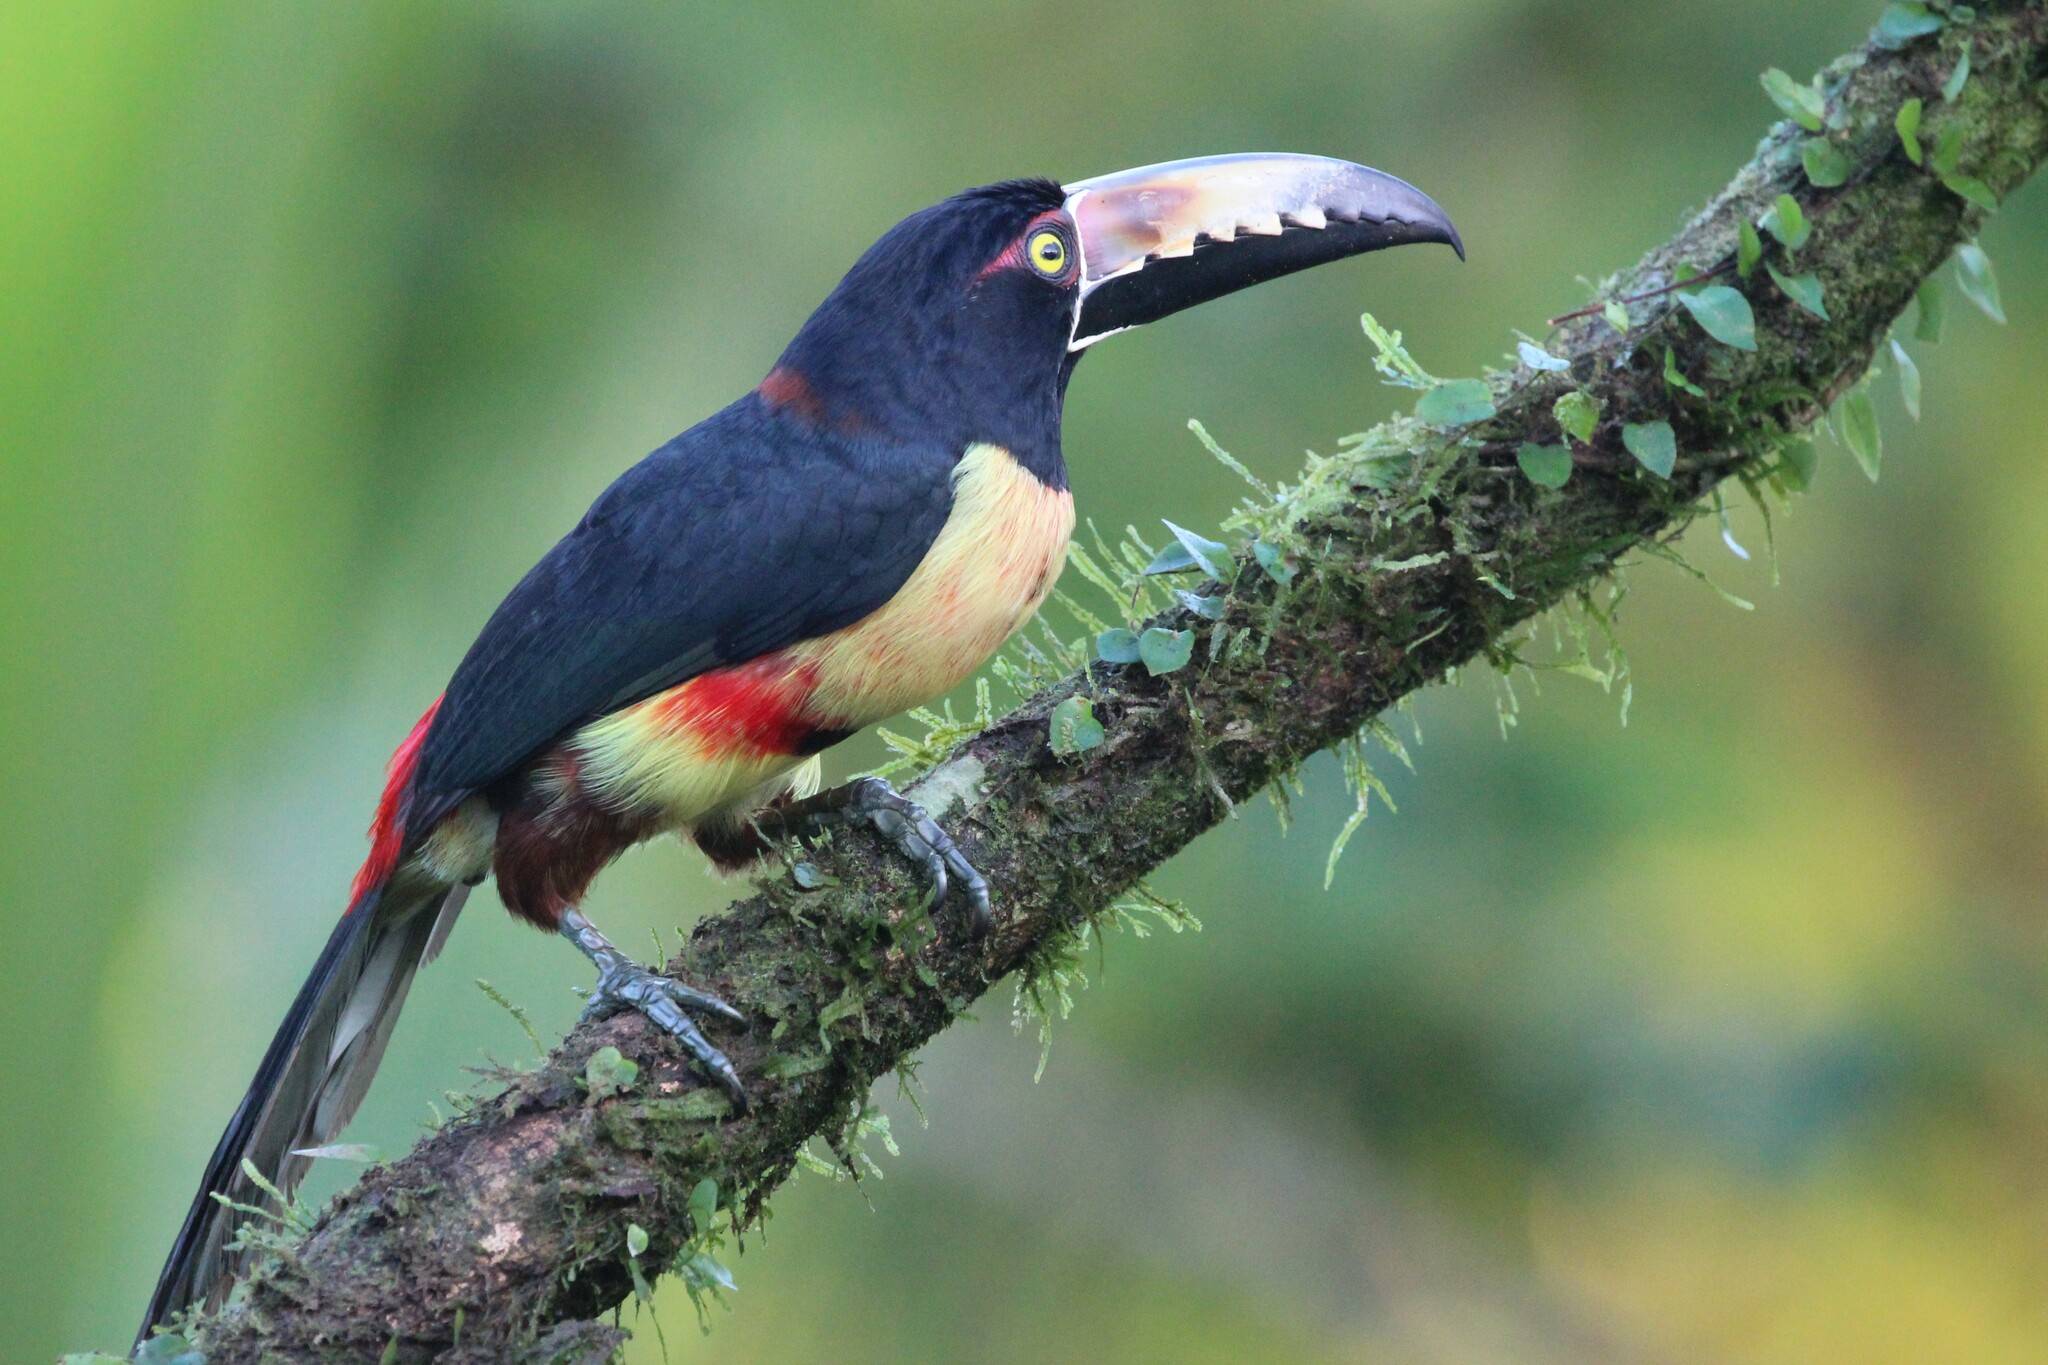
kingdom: Animalia
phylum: Chordata
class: Aves
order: Piciformes
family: Ramphastidae
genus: Pteroglossus
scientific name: Pteroglossus torquatus
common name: Collared aracari
